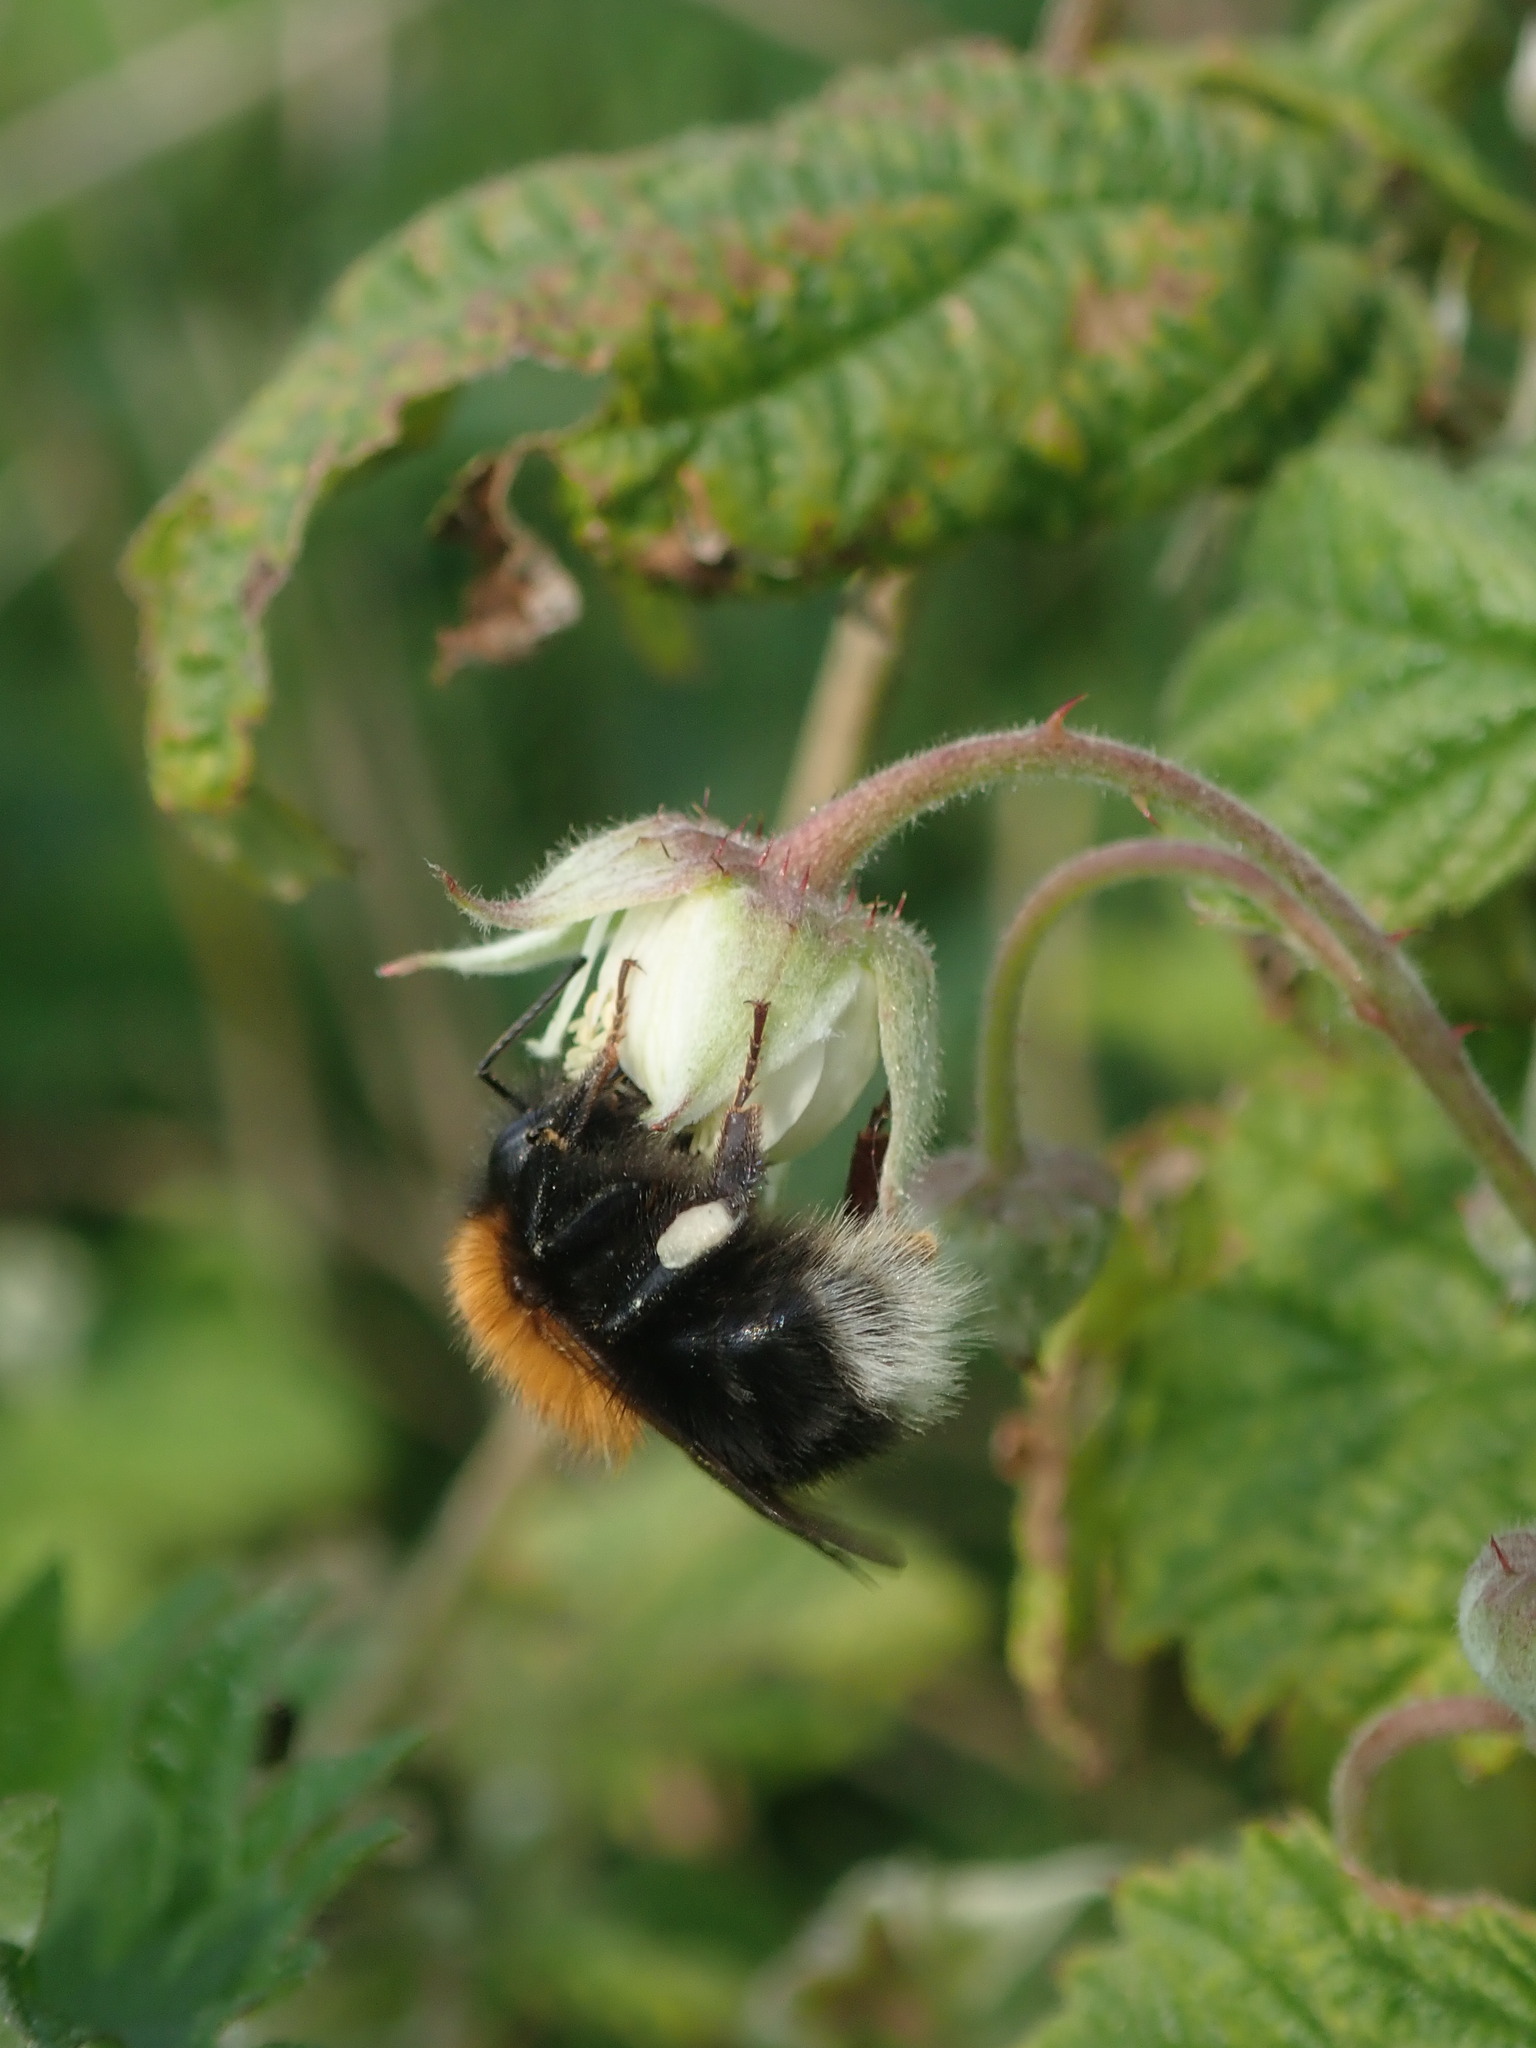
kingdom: Animalia
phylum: Arthropoda
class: Insecta
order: Hymenoptera
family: Apidae
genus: Bombus
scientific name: Bombus hypnorum
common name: New garden bumblebee
